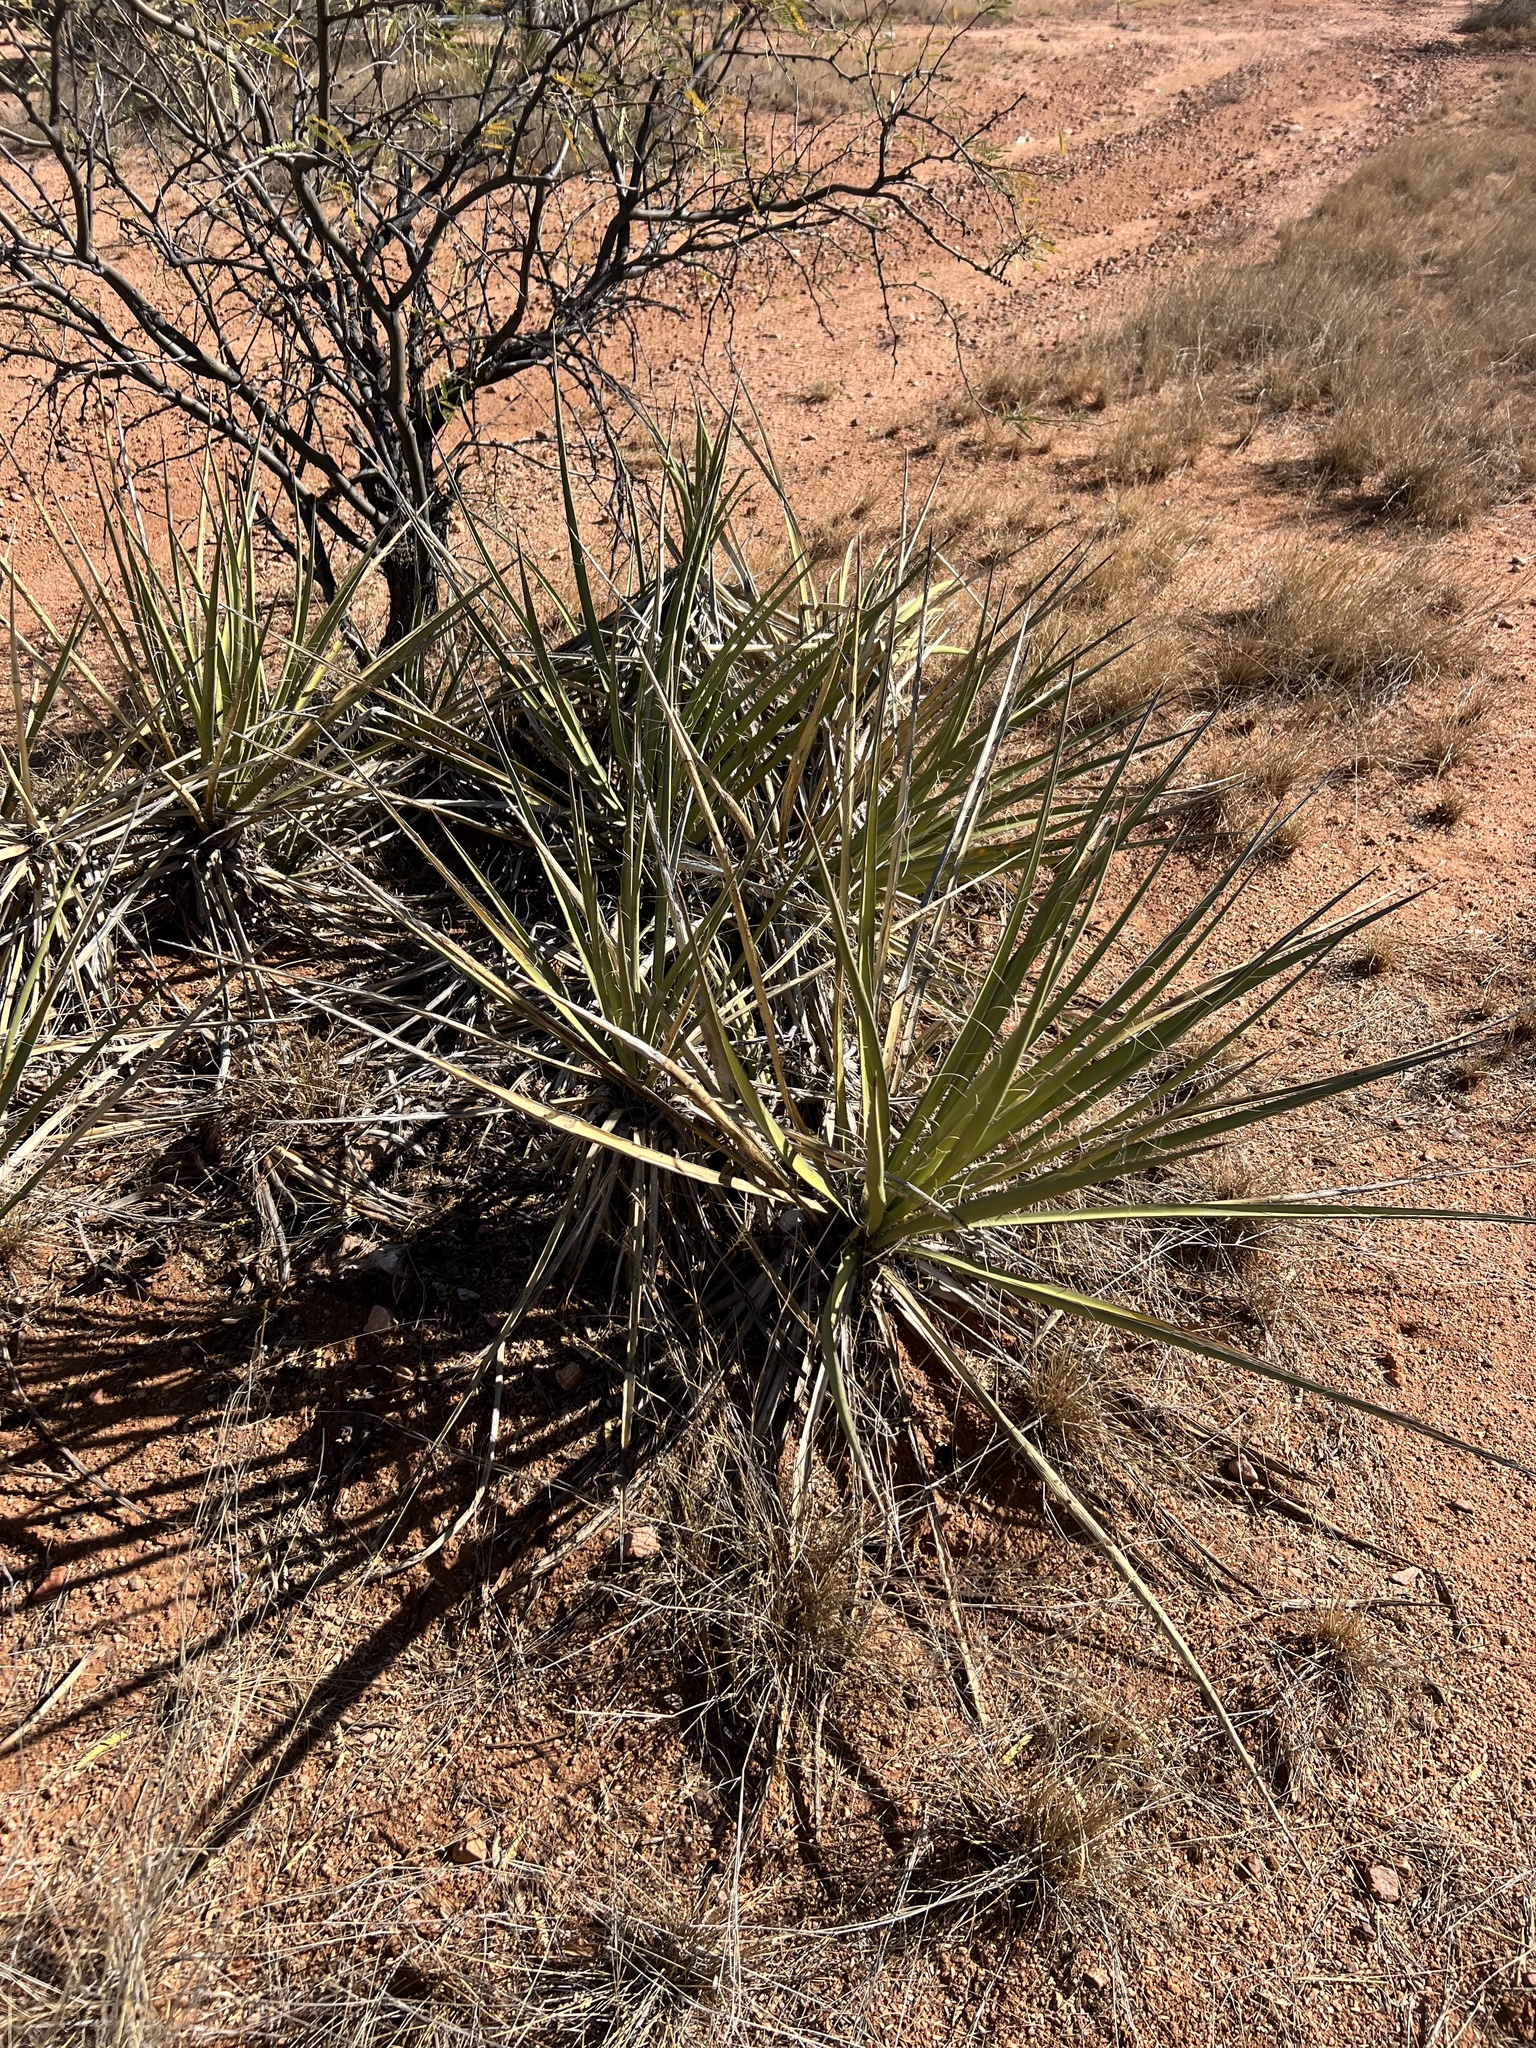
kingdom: Plantae
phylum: Tracheophyta
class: Liliopsida
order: Asparagales
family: Asparagaceae
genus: Yucca
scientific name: Yucca baccata
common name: Banana yucca
